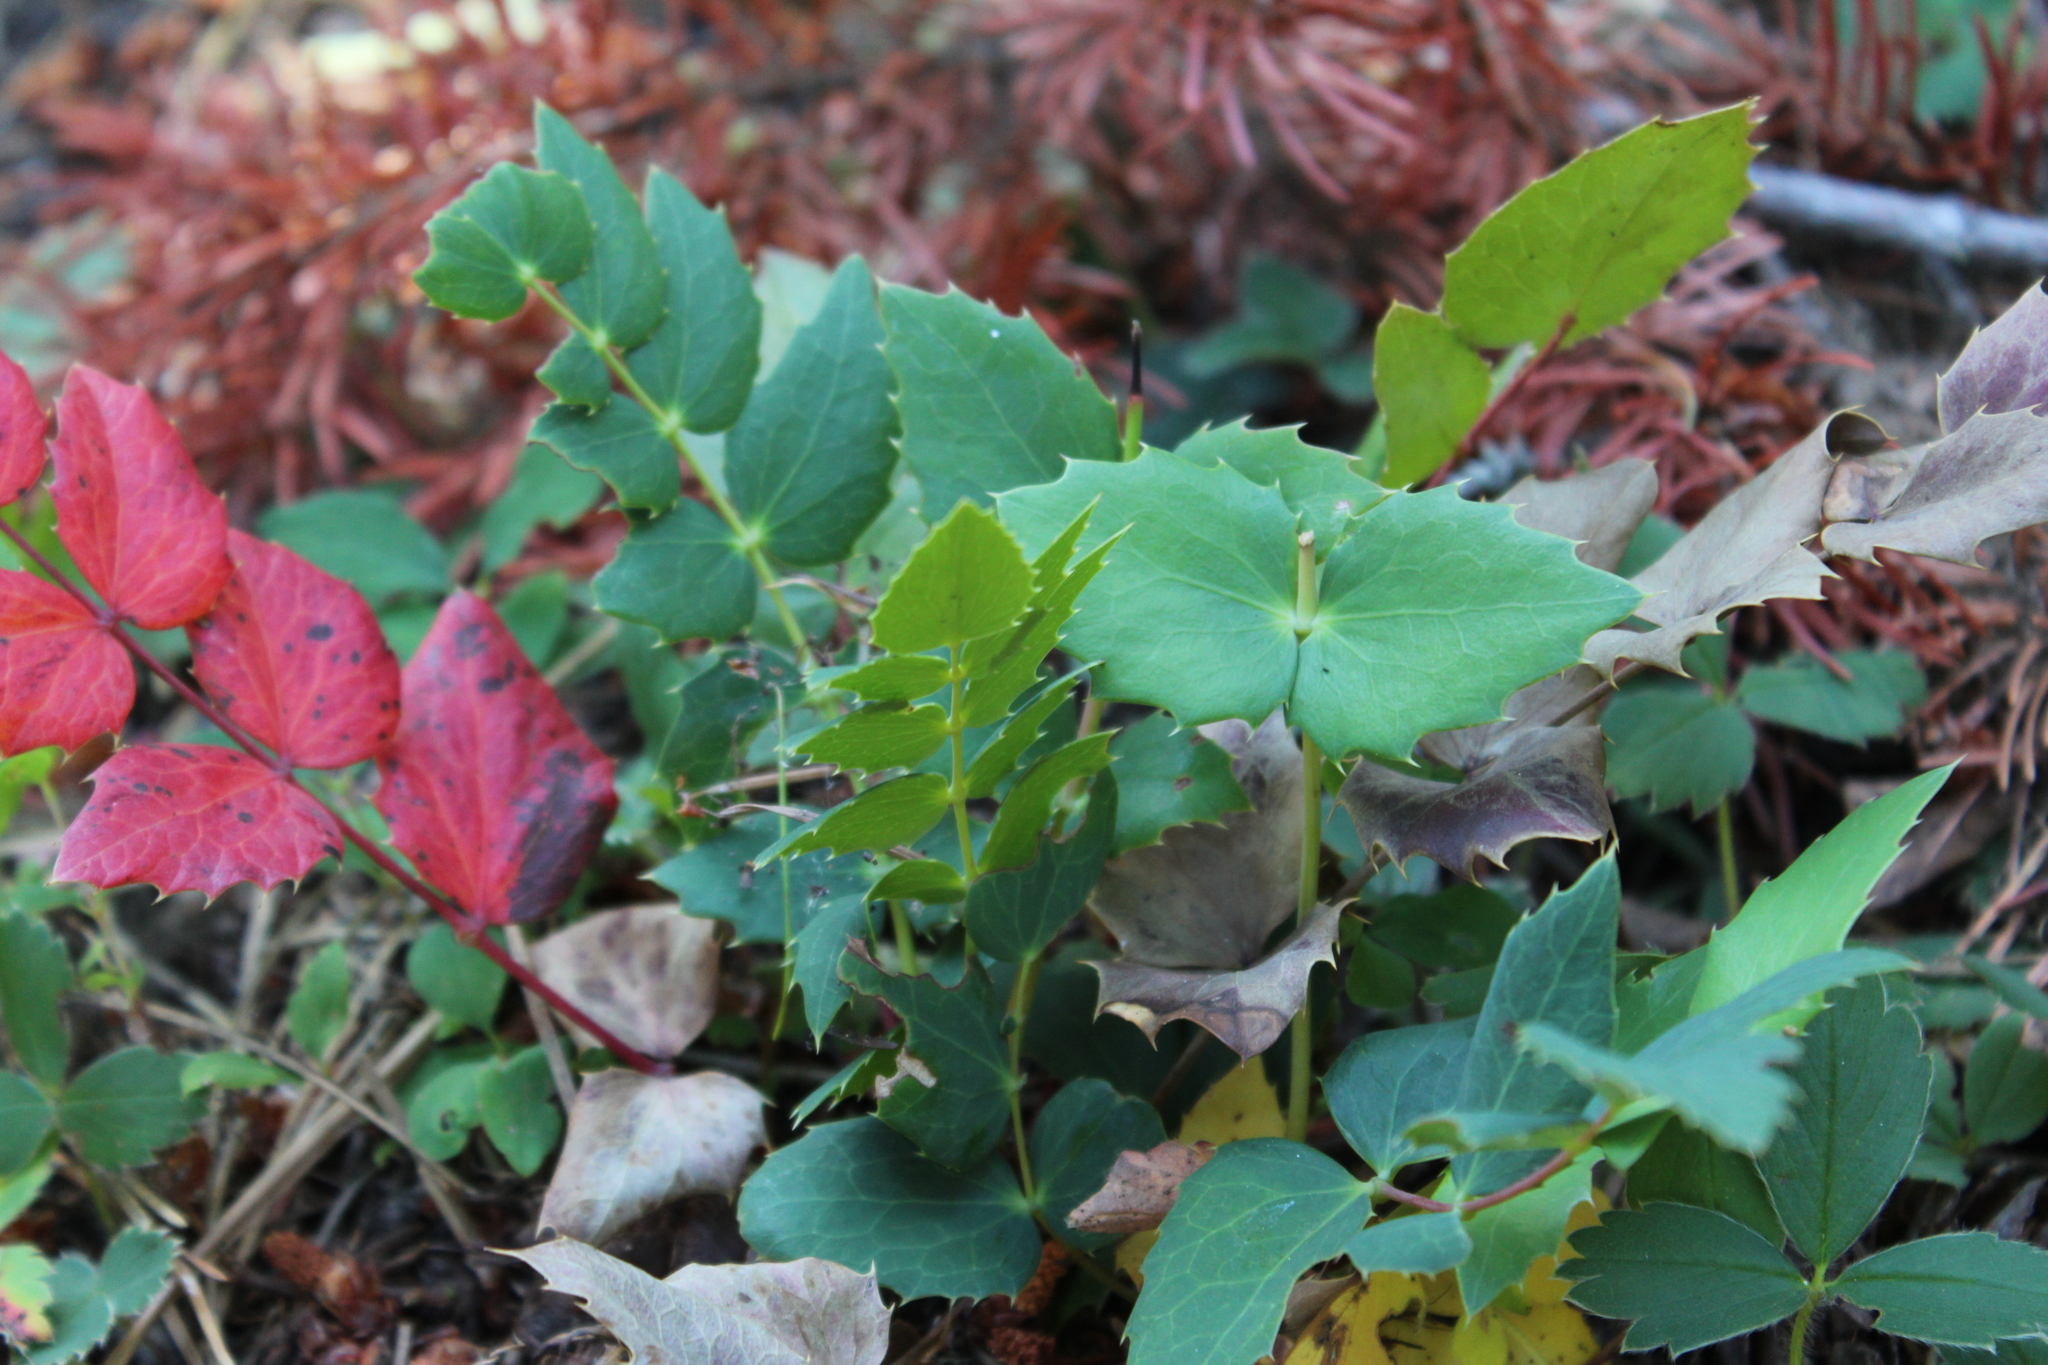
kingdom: Plantae
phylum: Tracheophyta
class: Magnoliopsida
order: Ranunculales
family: Berberidaceae
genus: Mahonia
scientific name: Mahonia nervosa
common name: Cascade oregon-grape
